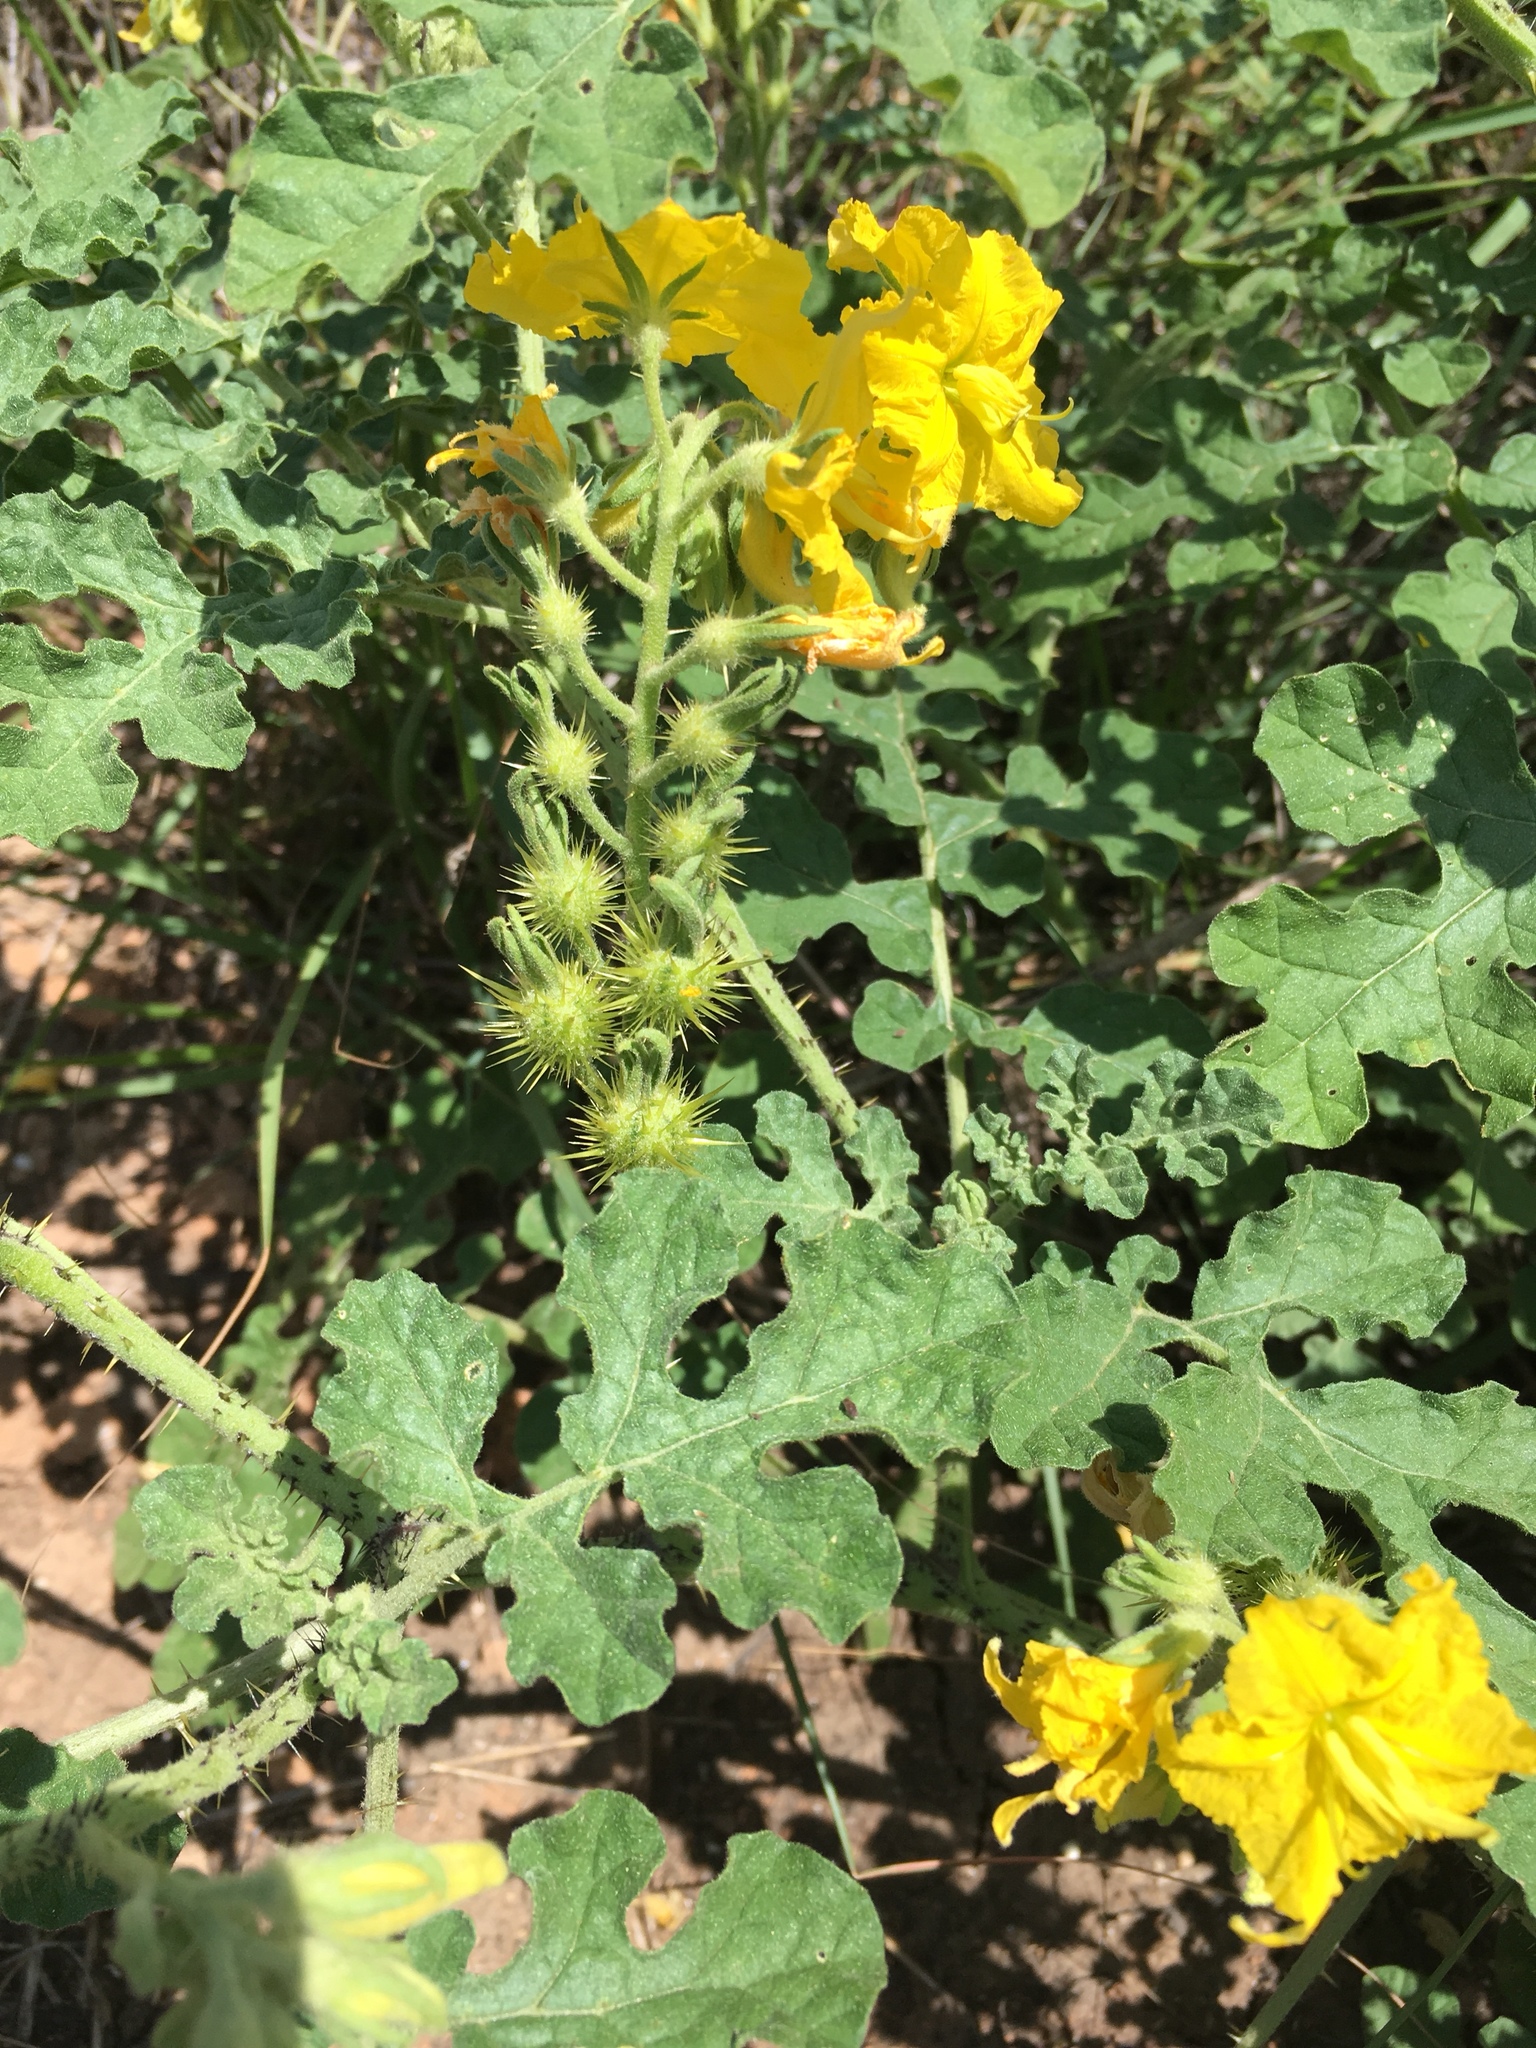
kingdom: Plantae
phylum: Tracheophyta
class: Magnoliopsida
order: Solanales
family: Solanaceae
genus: Solanum
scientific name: Solanum angustifolium
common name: Buffalobur nightshade
